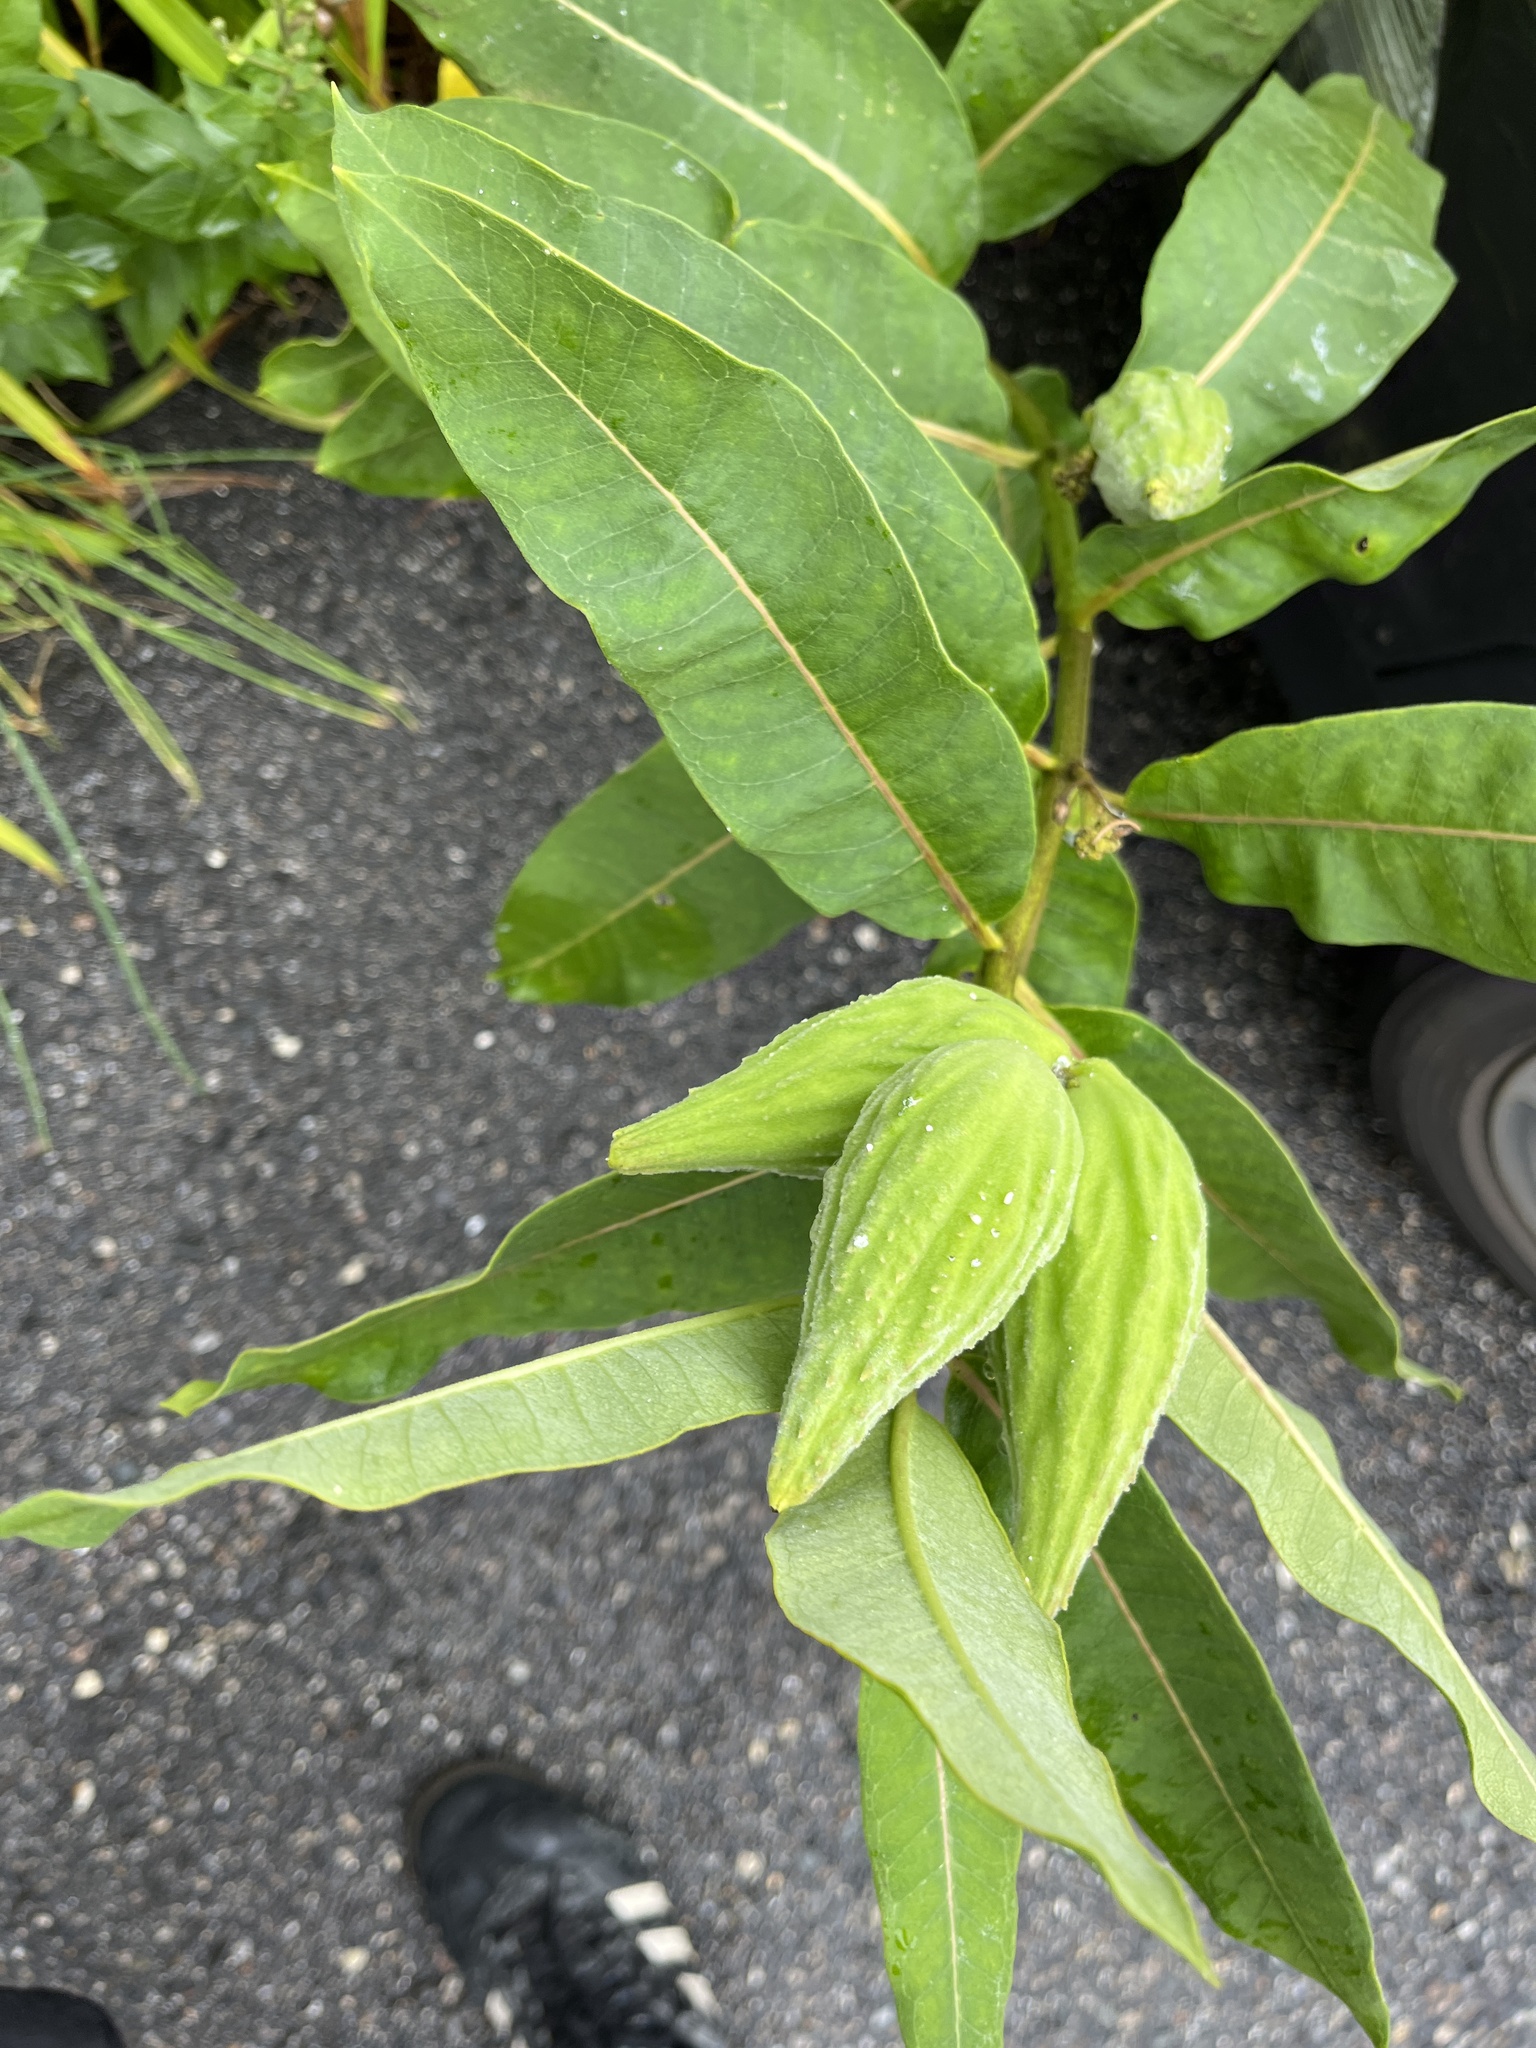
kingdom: Plantae
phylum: Tracheophyta
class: Magnoliopsida
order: Gentianales
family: Apocynaceae
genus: Asclepias
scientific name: Asclepias syriaca
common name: Common milkweed
